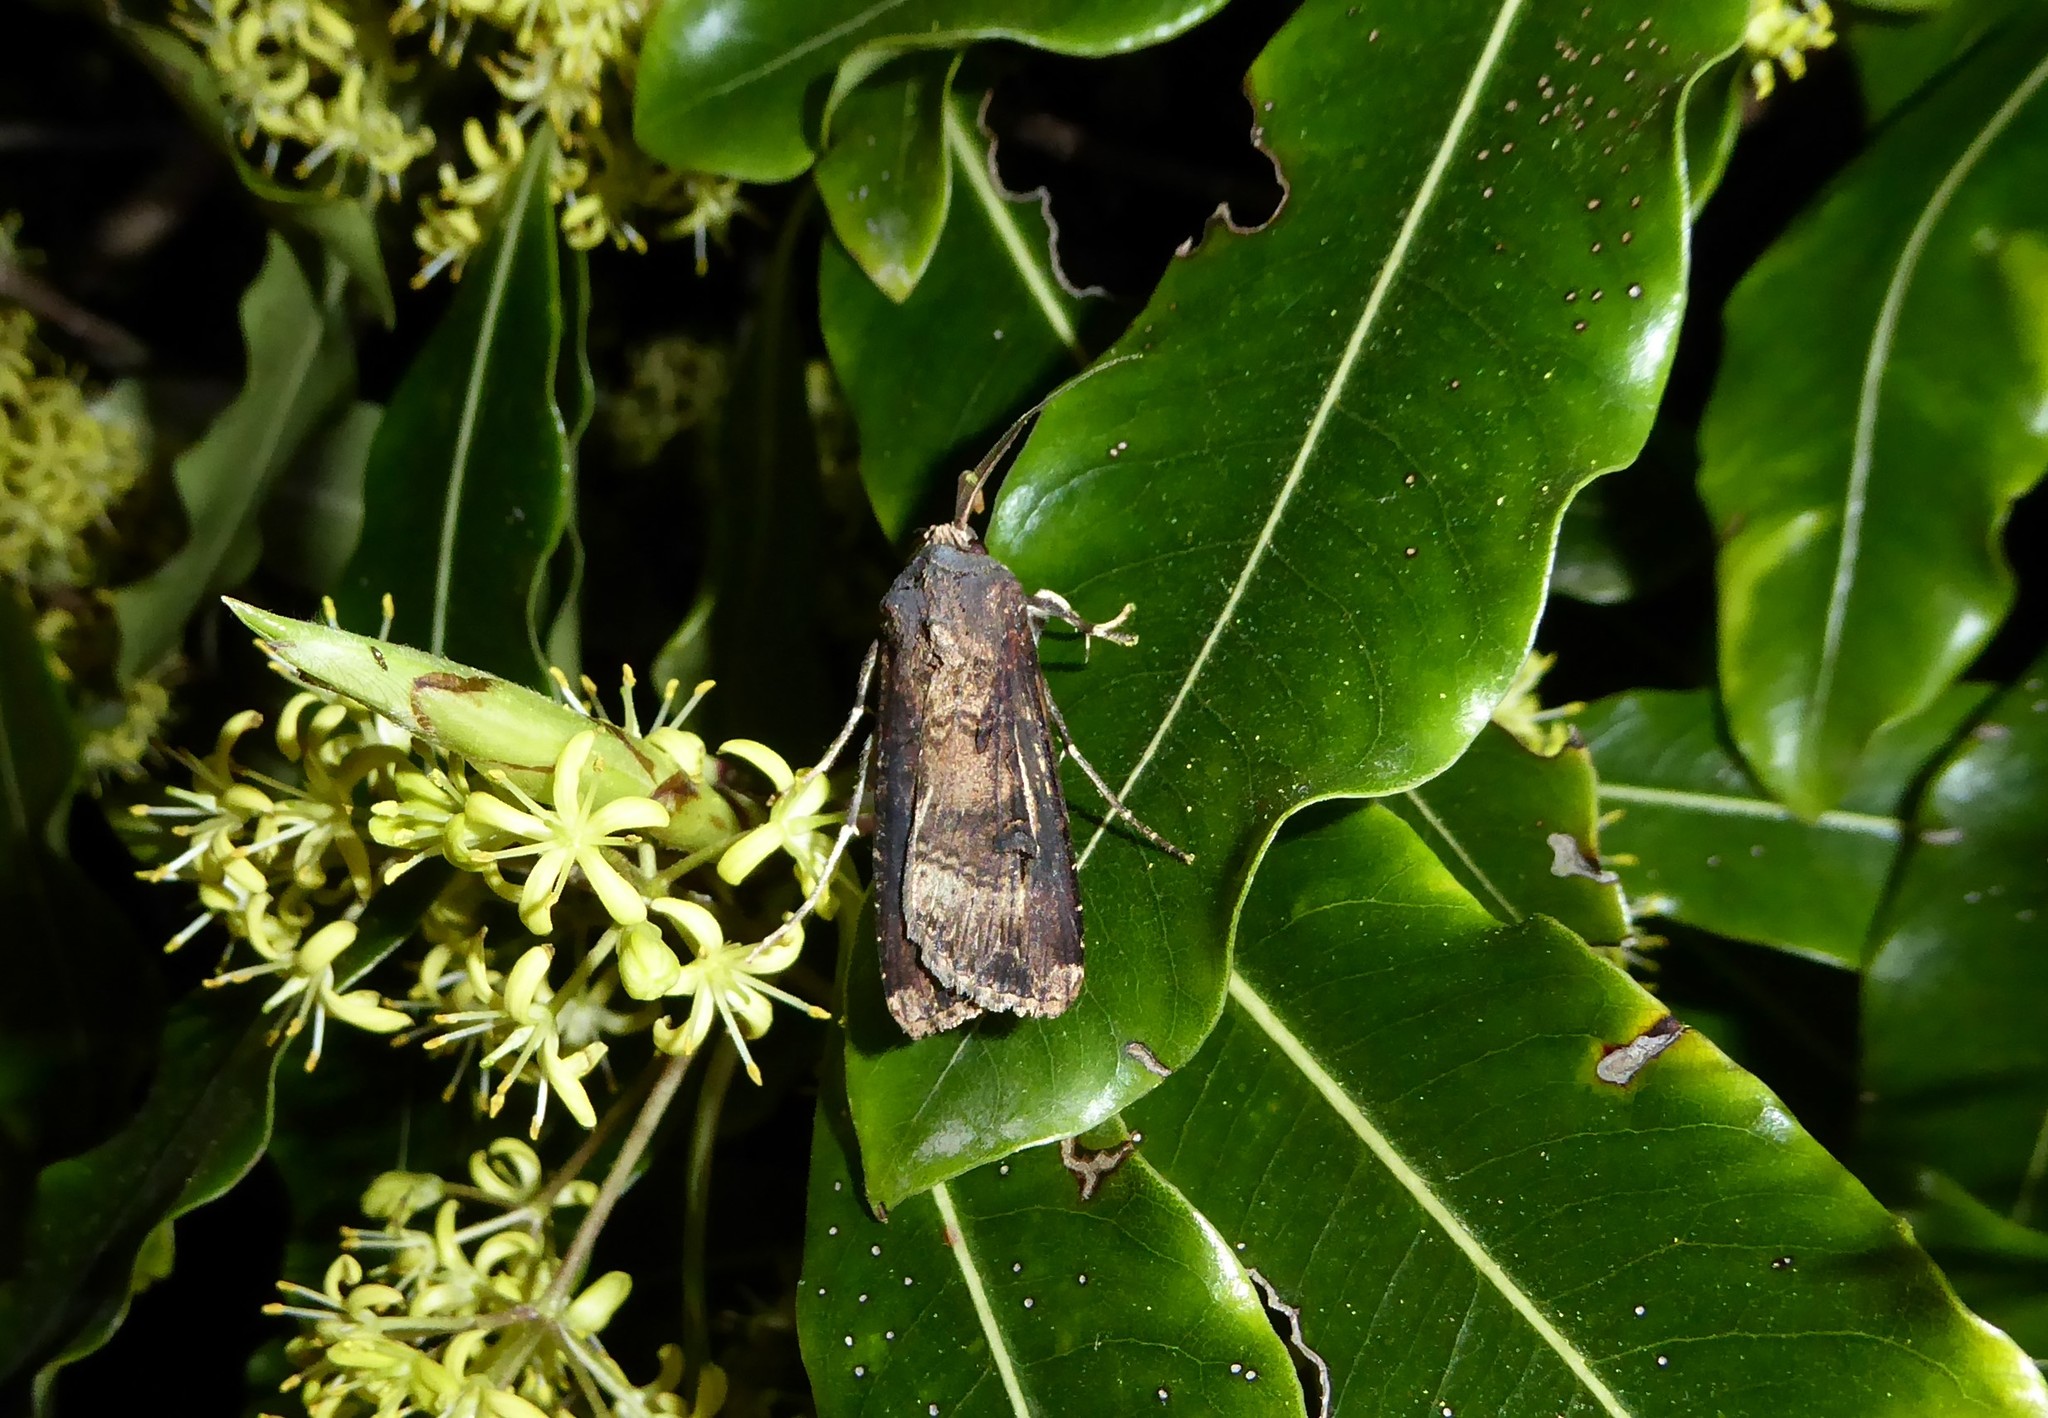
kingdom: Animalia
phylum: Arthropoda
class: Insecta
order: Lepidoptera
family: Noctuidae
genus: Agrotis
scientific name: Agrotis ipsilon
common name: Dark sword-grass
